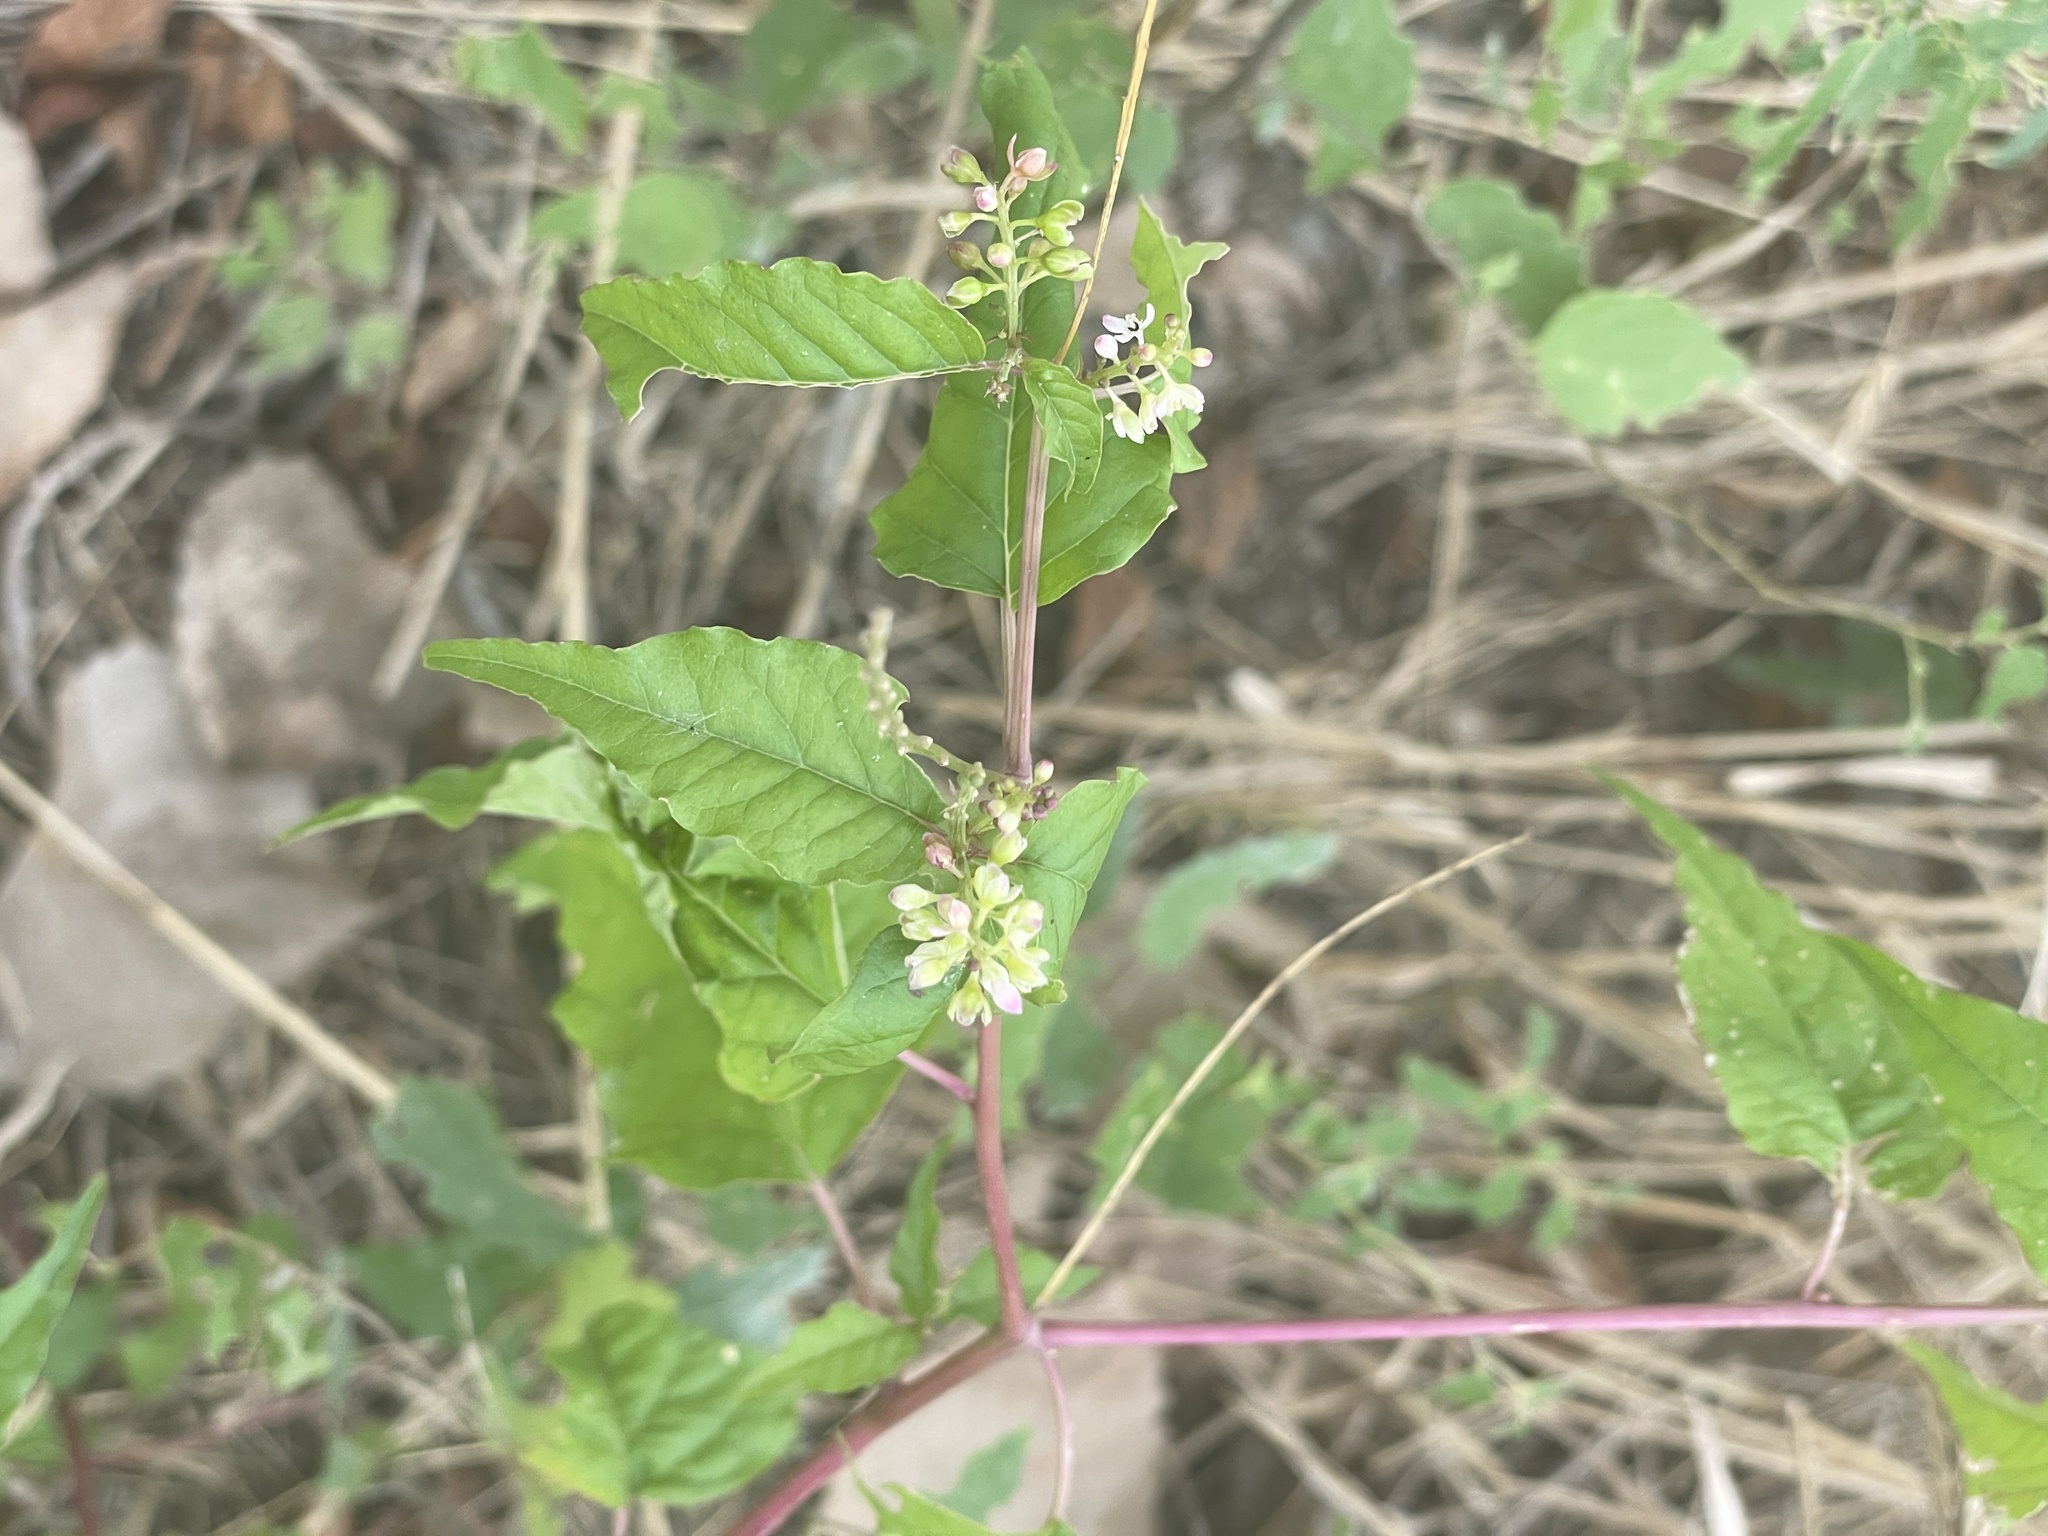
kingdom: Plantae
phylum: Tracheophyta
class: Magnoliopsida
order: Caryophyllales
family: Phytolaccaceae
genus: Rivina
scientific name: Rivina humilis
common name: Rougeplant
